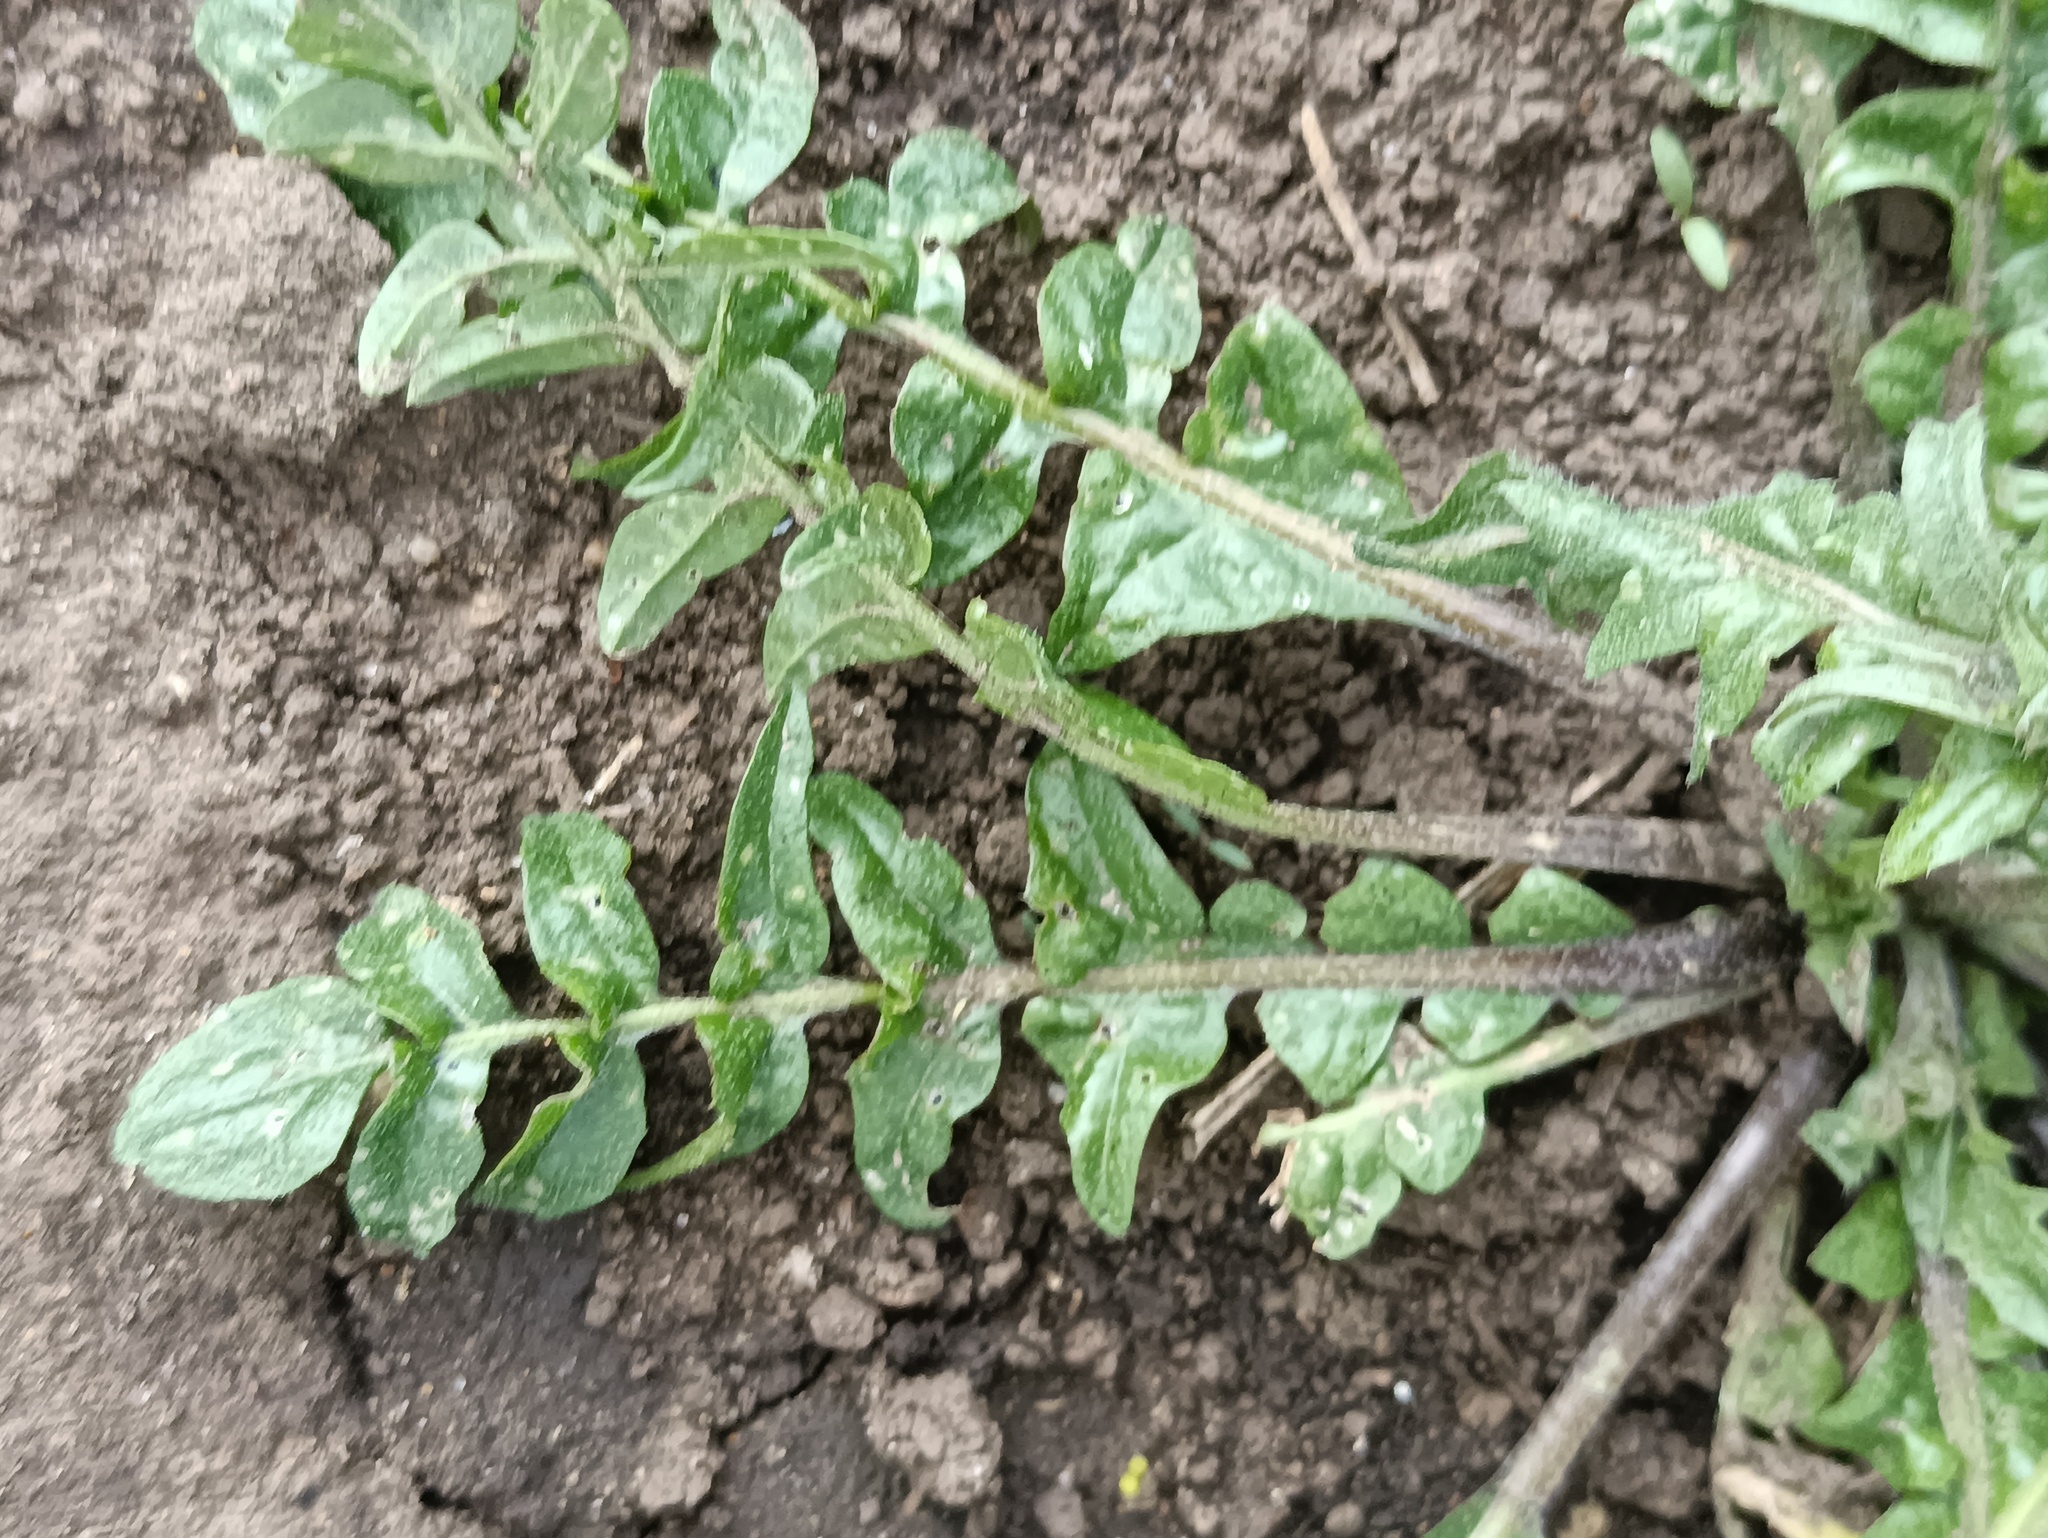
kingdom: Plantae
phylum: Tracheophyta
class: Magnoliopsida
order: Brassicales
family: Brassicaceae
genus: Capsella
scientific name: Capsella bursa-pastoris
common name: Shepherd's purse
